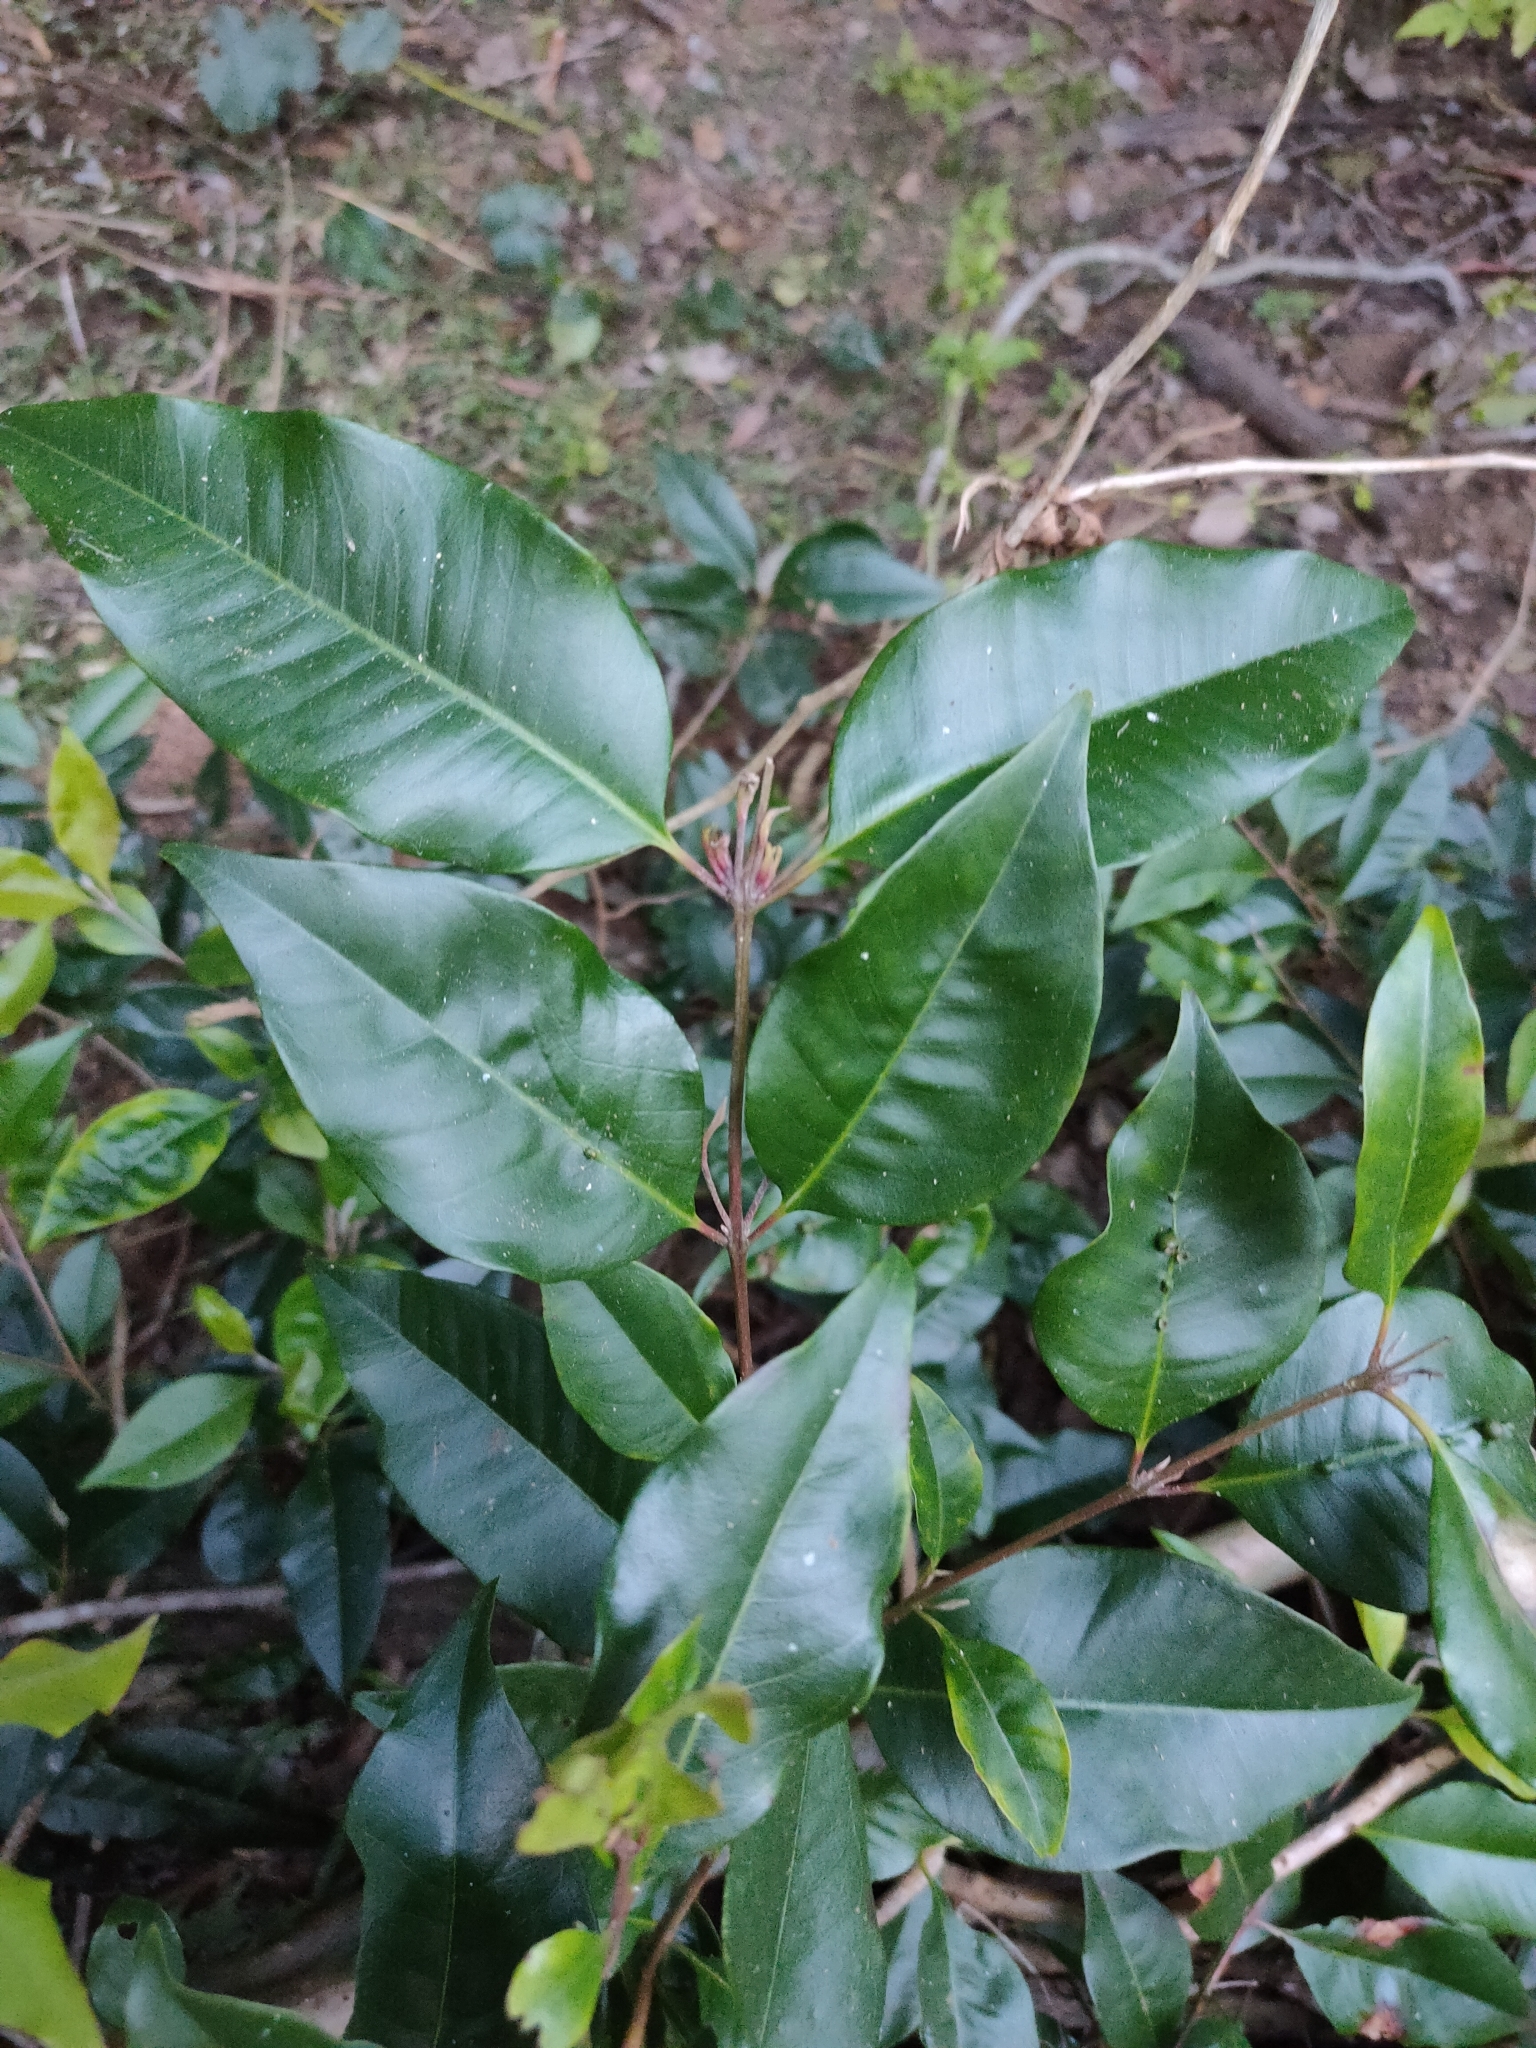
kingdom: Plantae
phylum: Tracheophyta
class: Magnoliopsida
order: Myrtales
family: Myrtaceae
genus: Backhousia
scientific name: Backhousia subargentea
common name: Giant ironwood
